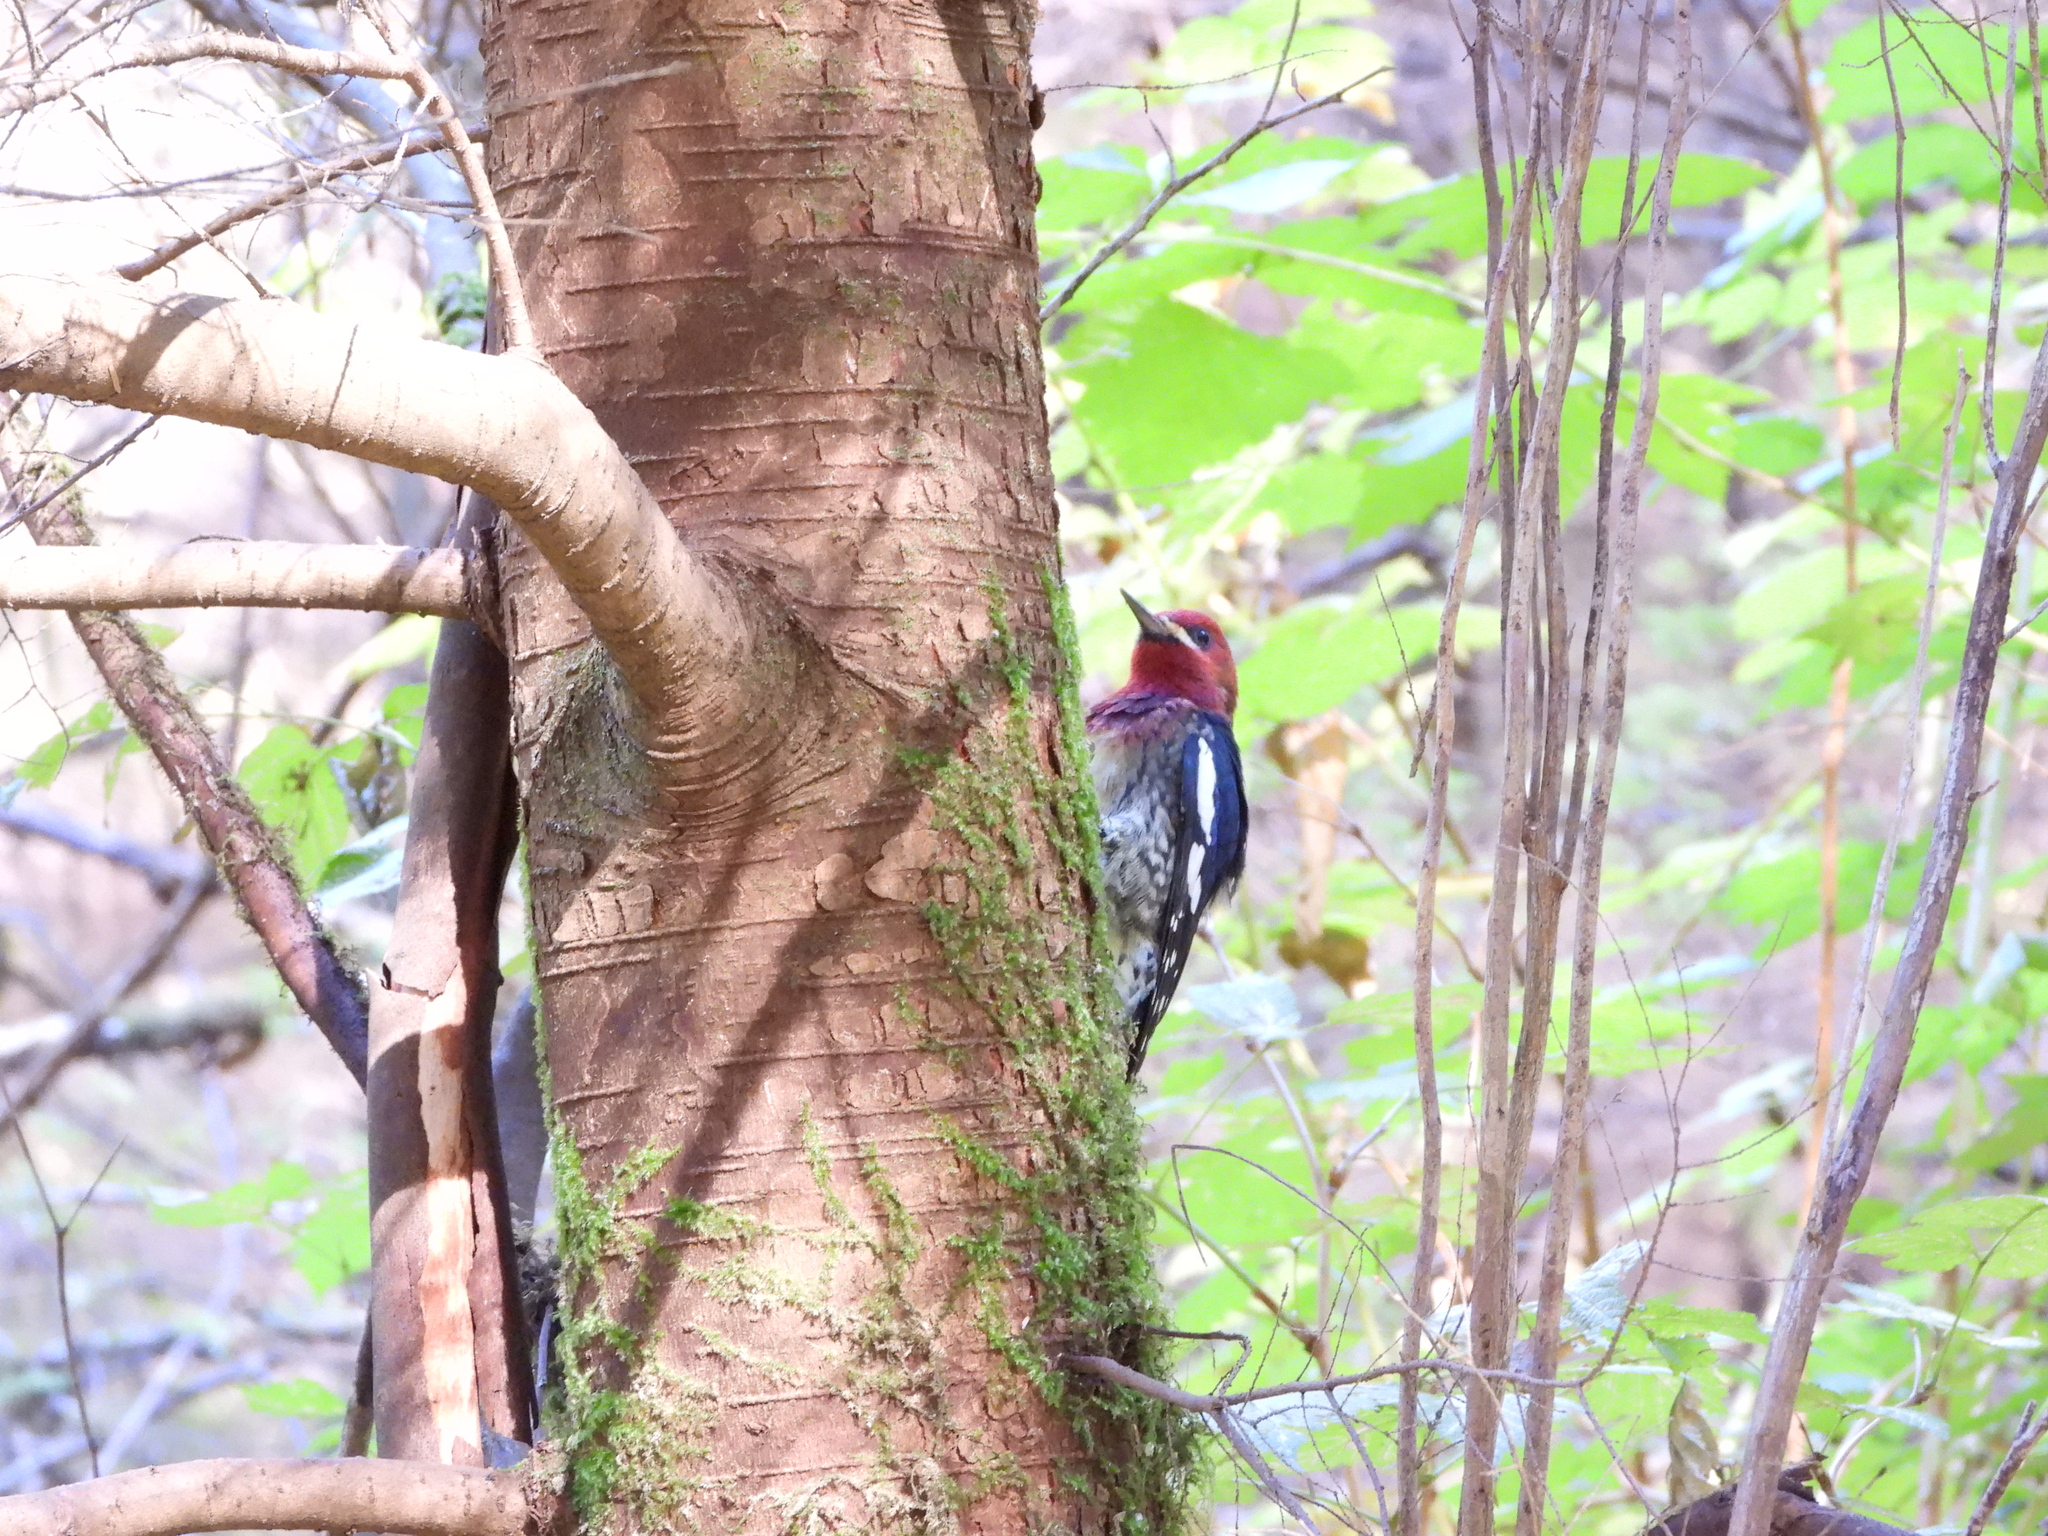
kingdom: Animalia
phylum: Chordata
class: Aves
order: Piciformes
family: Picidae
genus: Sphyrapicus
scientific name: Sphyrapicus ruber
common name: Red-breasted sapsucker
